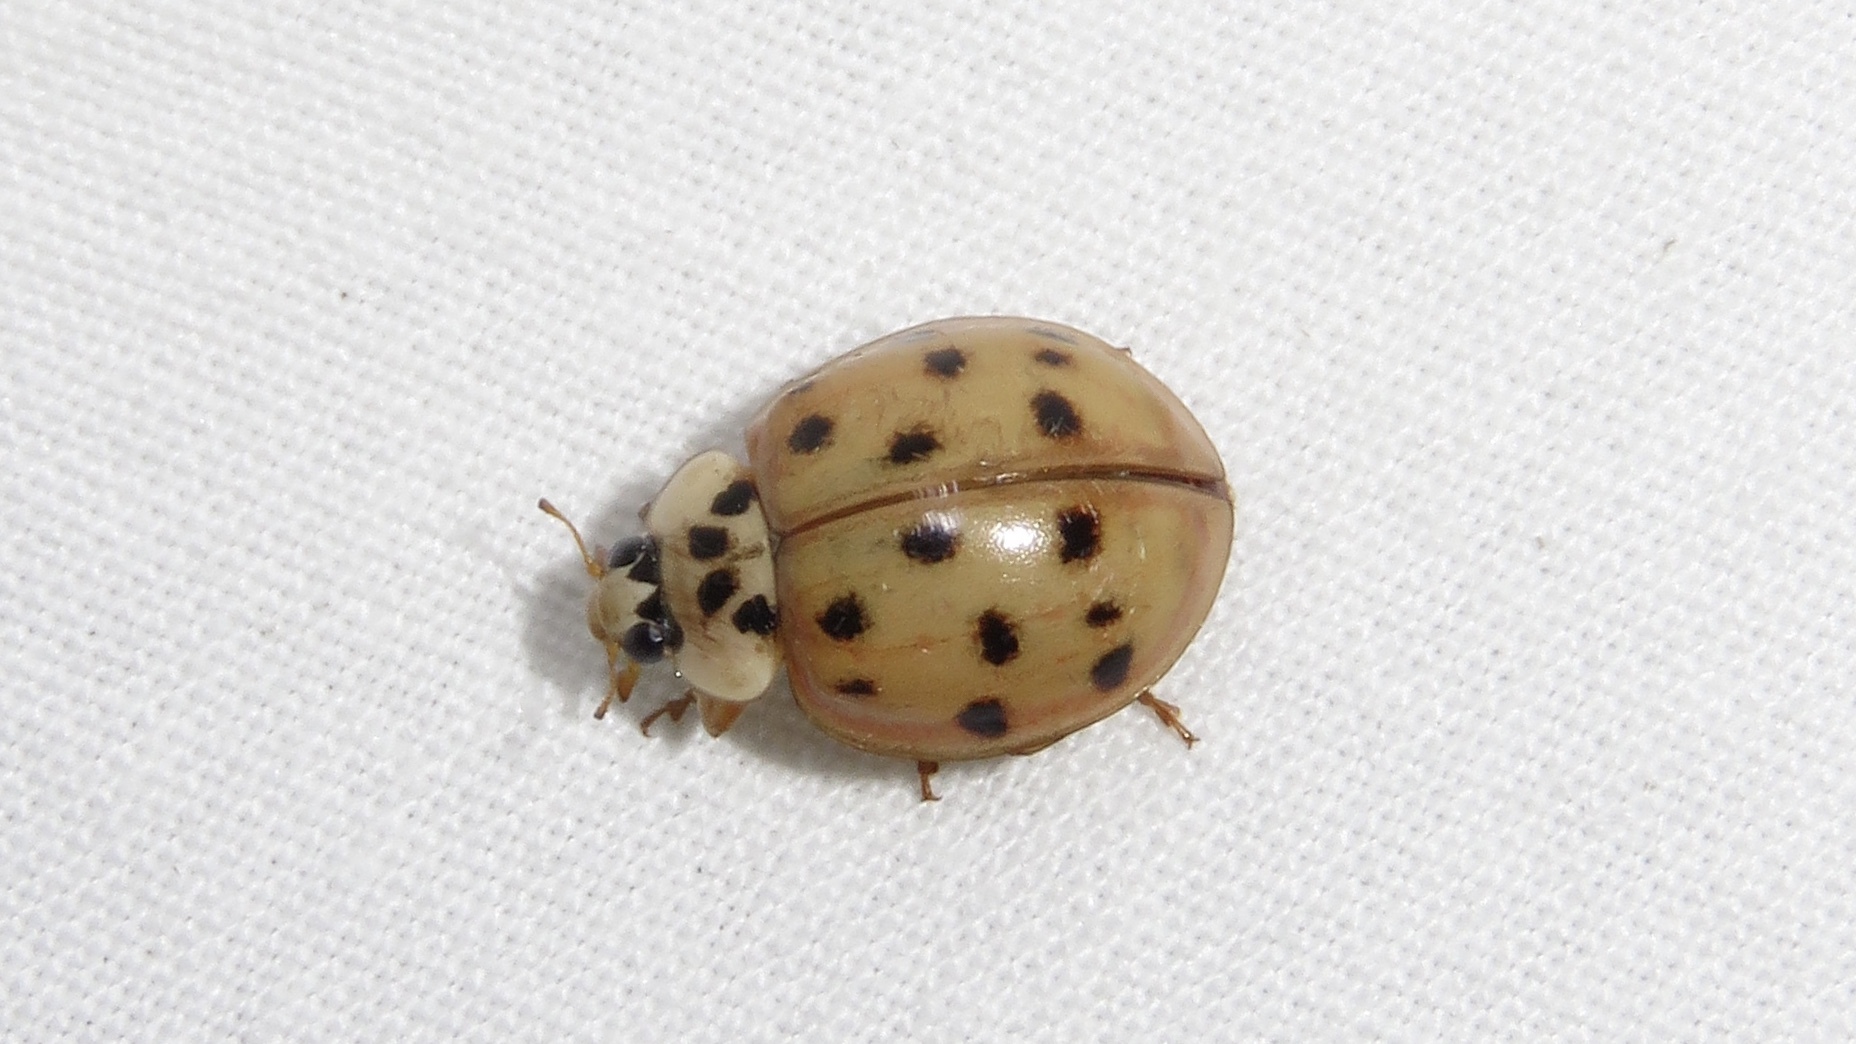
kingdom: Animalia
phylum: Arthropoda
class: Insecta
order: Coleoptera
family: Coccinellidae
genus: Harmonia
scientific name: Harmonia axyridis
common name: Harlequin ladybird
